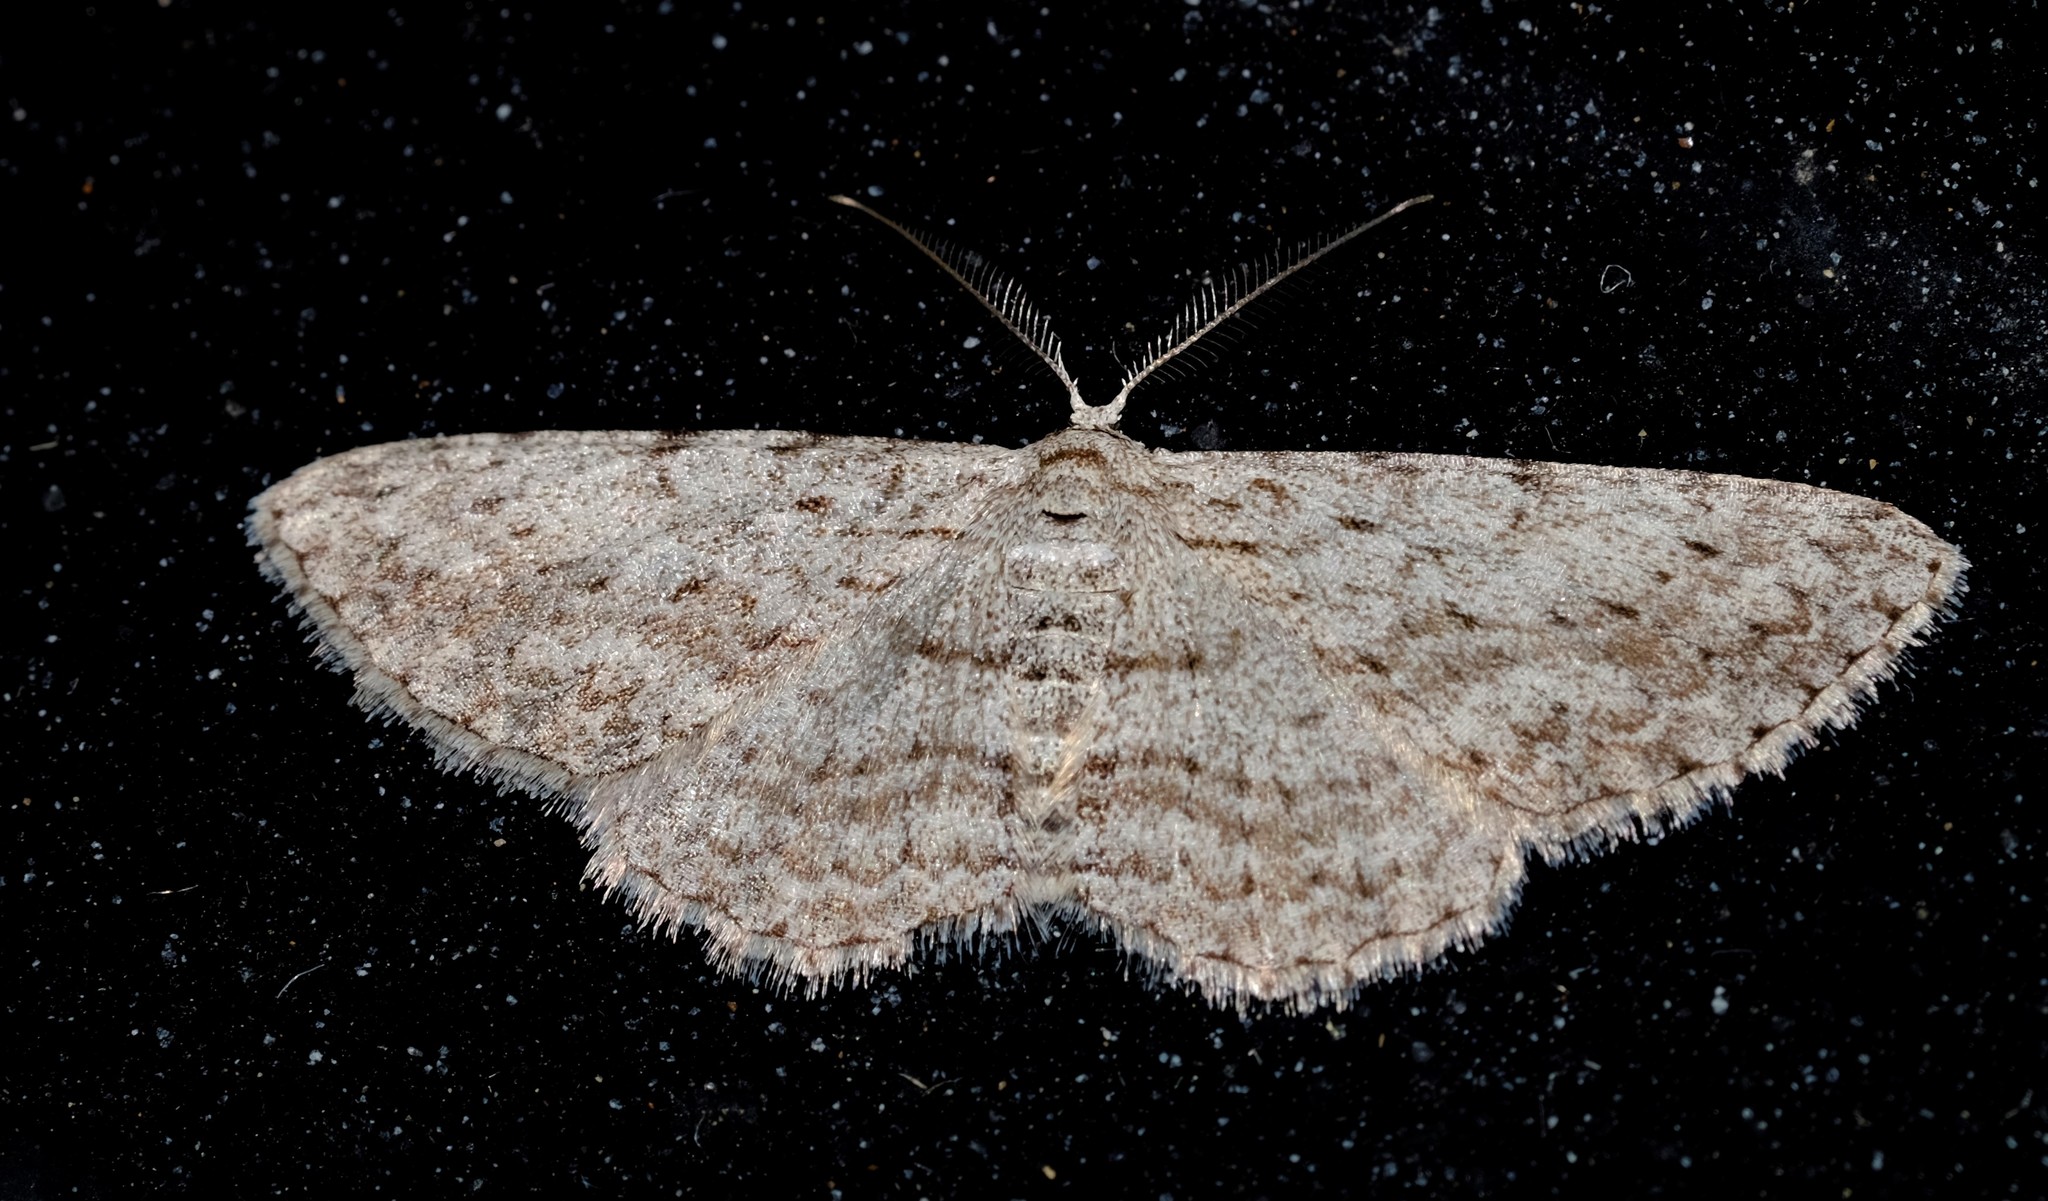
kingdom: Animalia
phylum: Arthropoda
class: Insecta
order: Lepidoptera
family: Geometridae
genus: Phelotis
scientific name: Phelotis cognata
